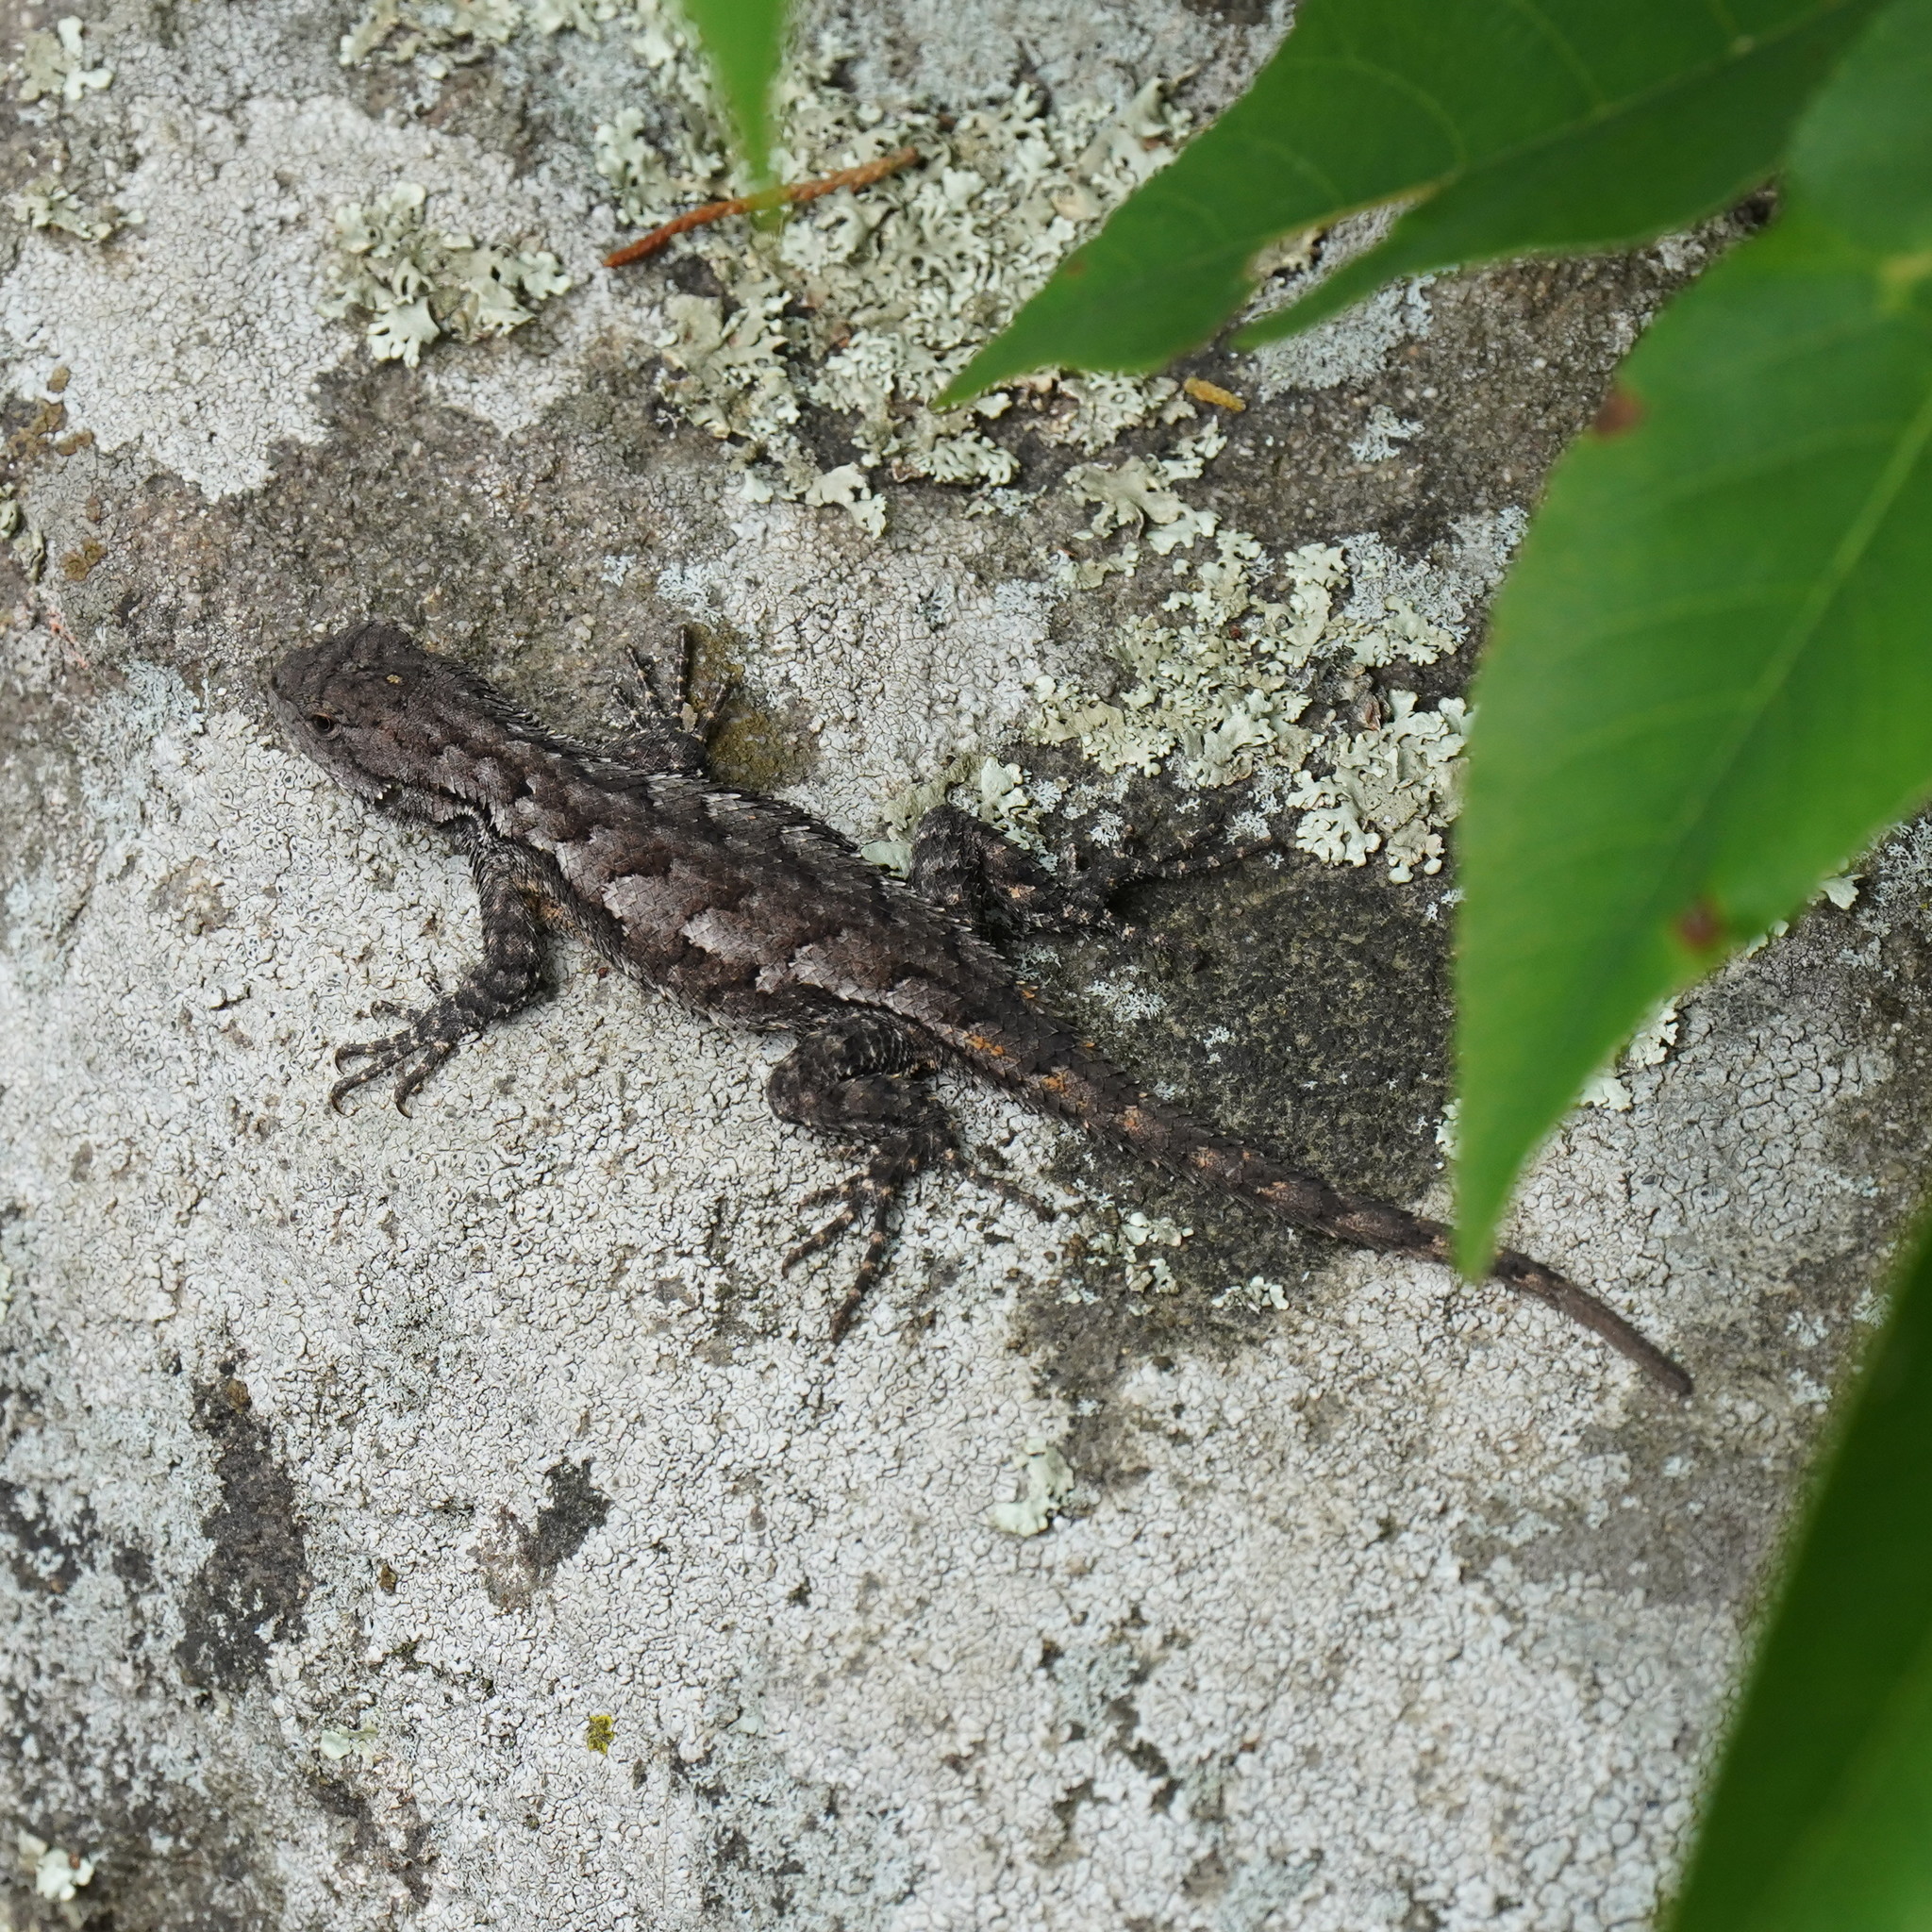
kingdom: Animalia
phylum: Chordata
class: Squamata
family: Phrynosomatidae
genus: Sceloporus
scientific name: Sceloporus undulatus
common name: Eastern fence lizard
